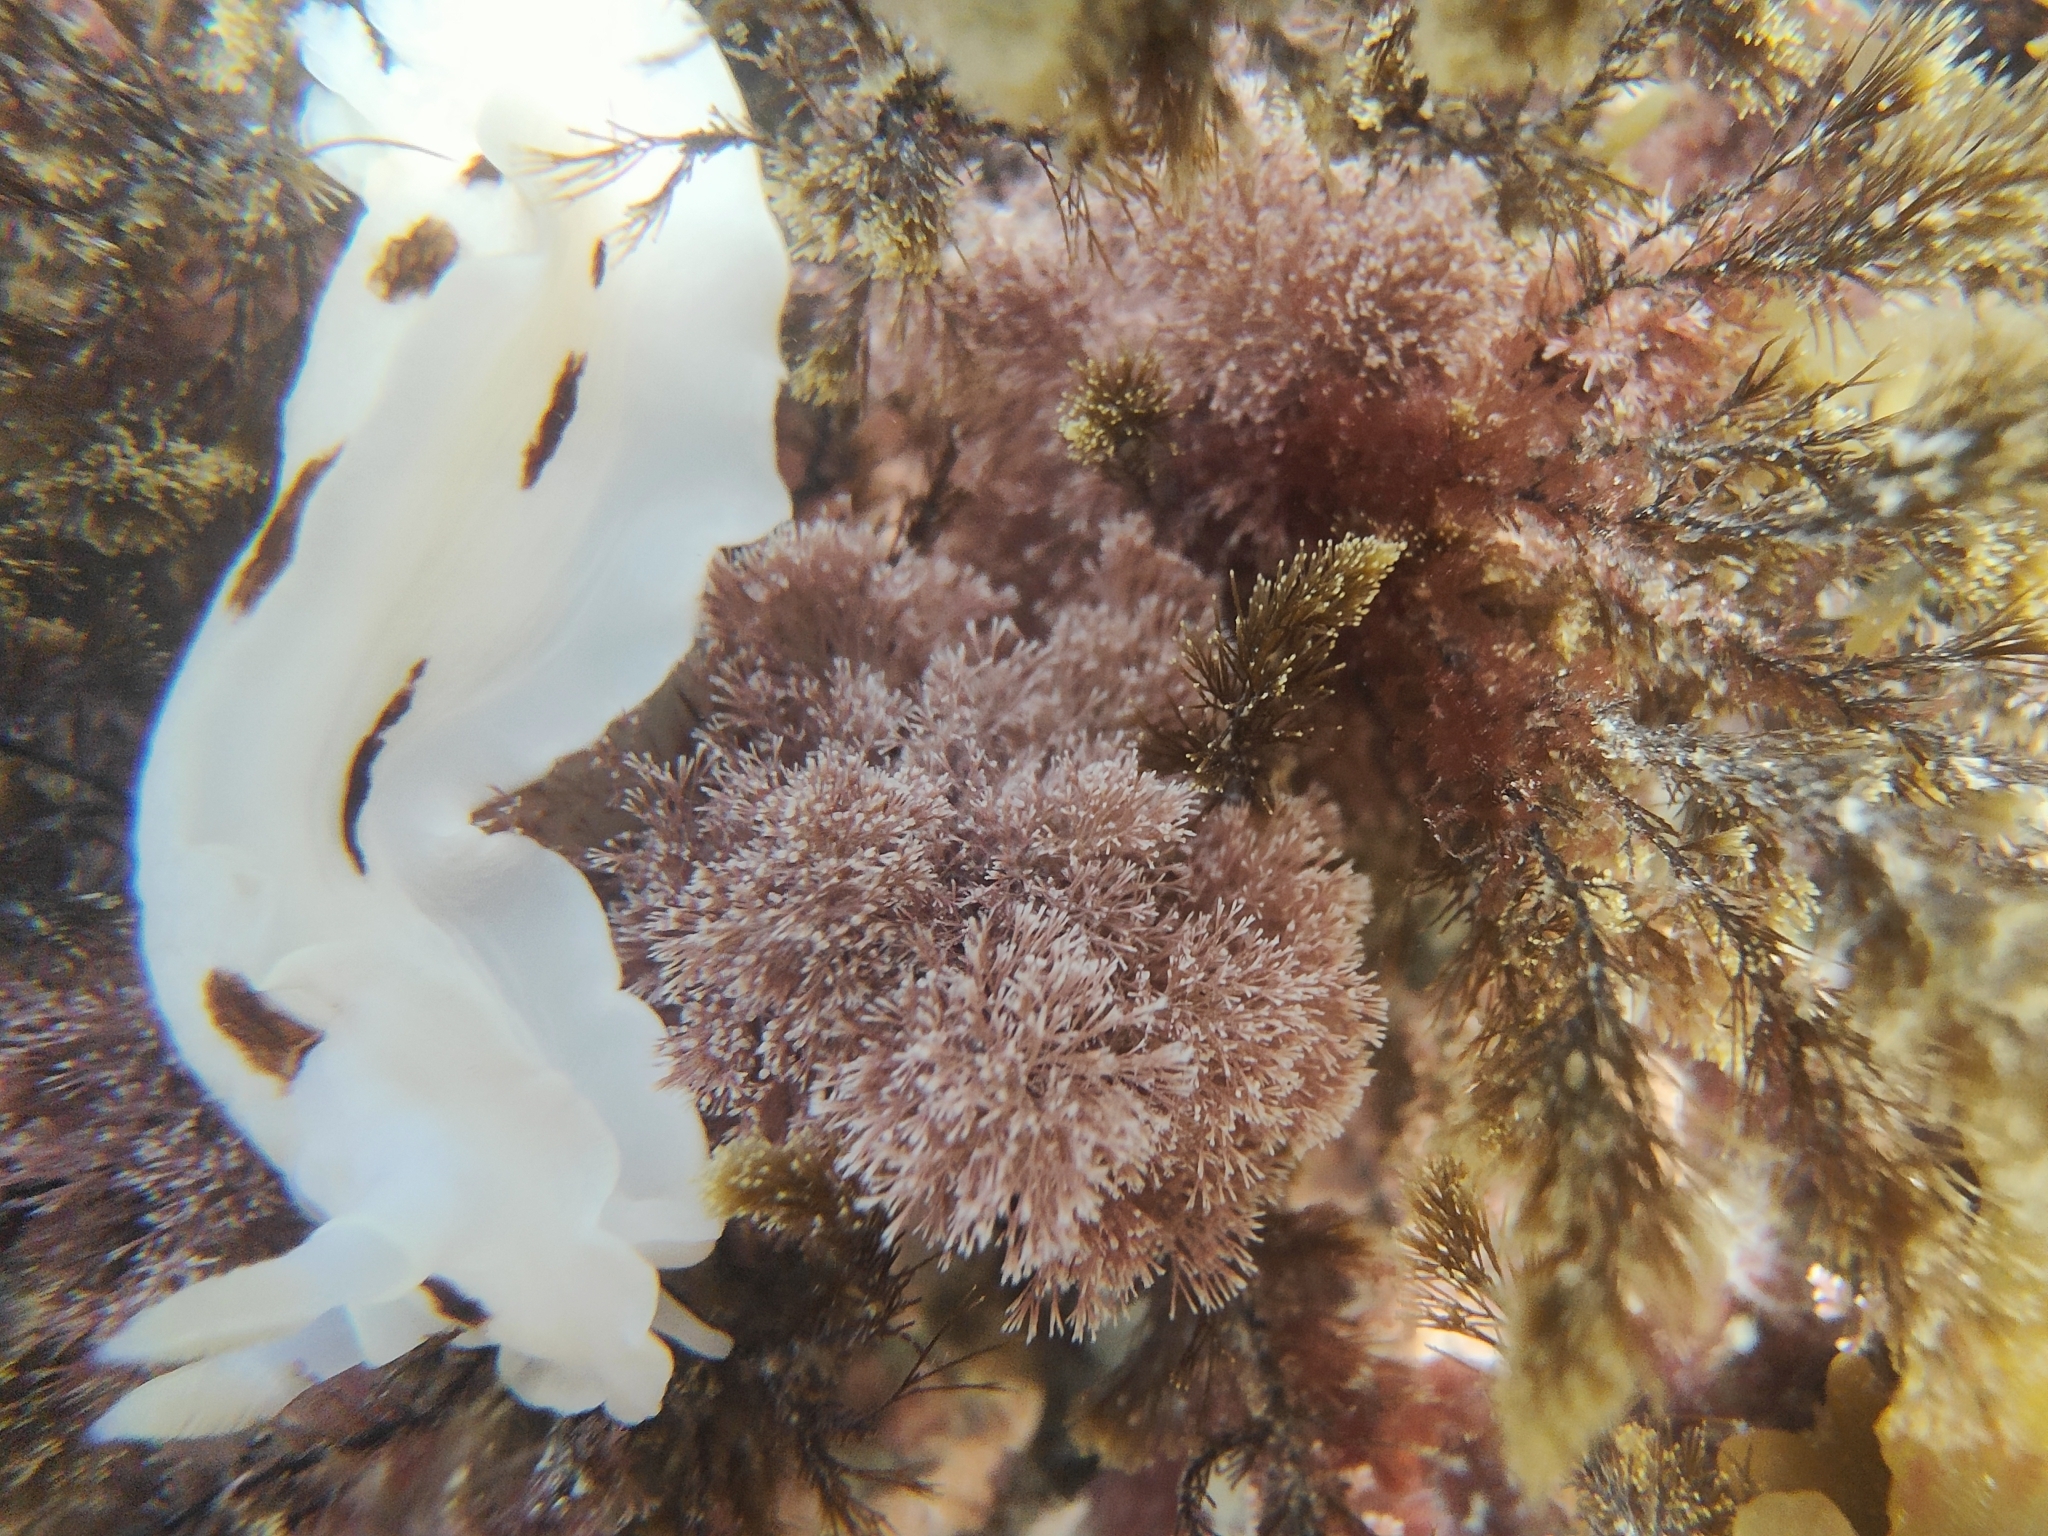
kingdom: Animalia
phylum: Mollusca
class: Gastropoda
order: Nudibranchia
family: Dorididae
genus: Aphelodoris
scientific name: Aphelodoris luctuosa
